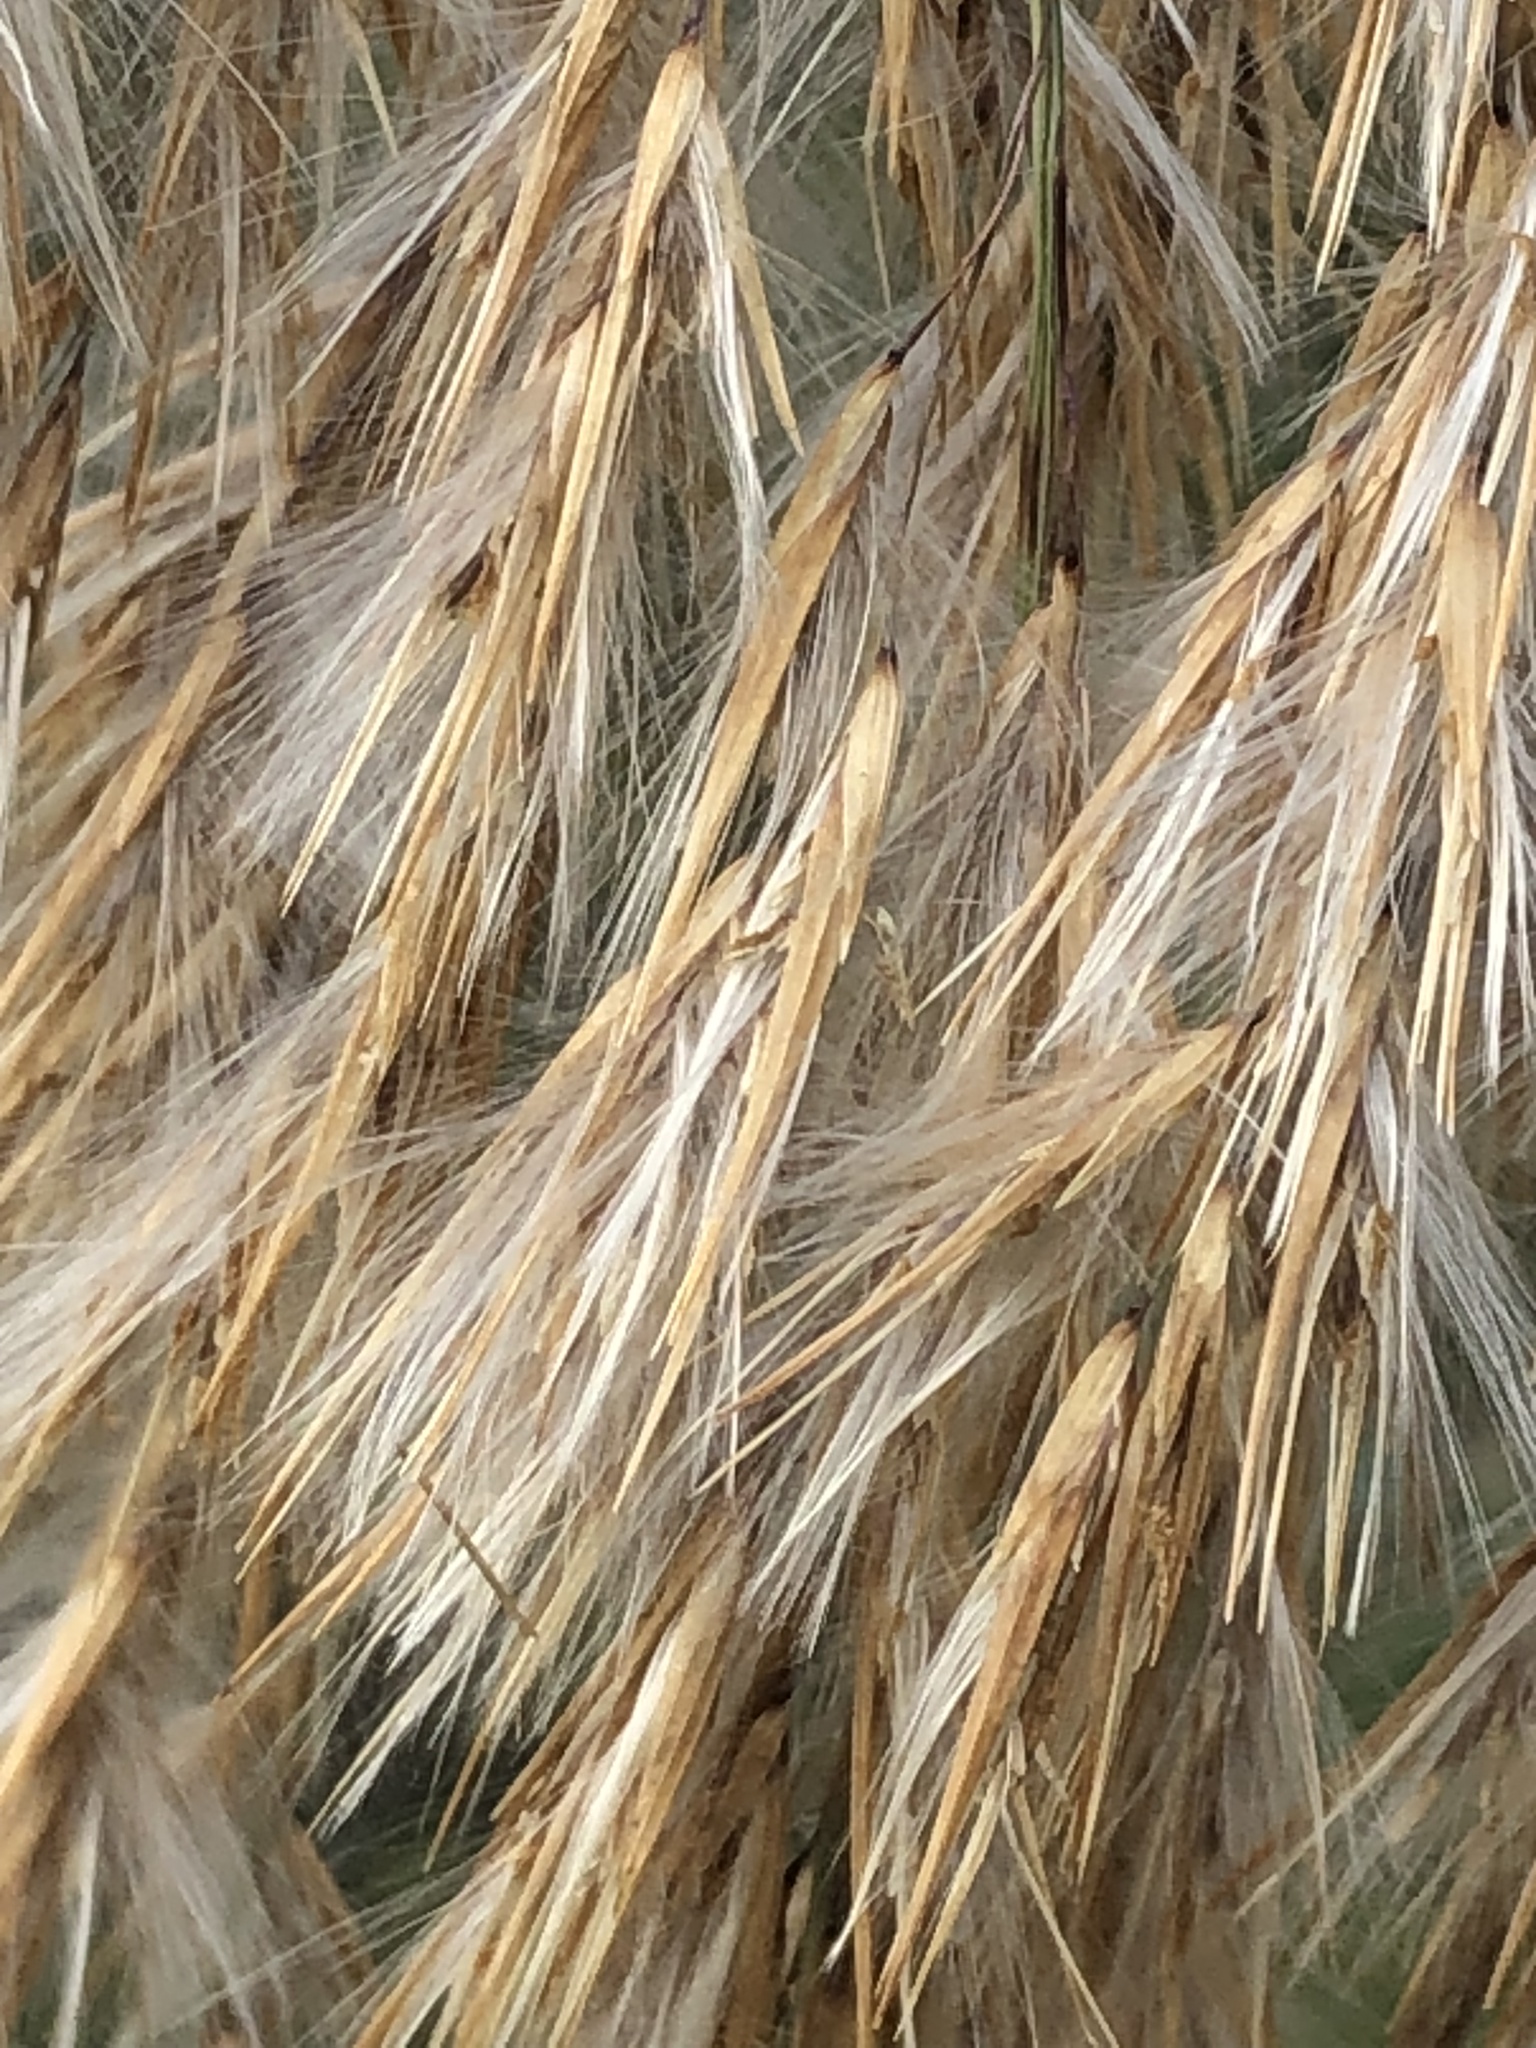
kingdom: Plantae
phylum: Tracheophyta
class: Liliopsida
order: Poales
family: Poaceae
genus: Phragmites
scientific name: Phragmites australis
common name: Common reed
